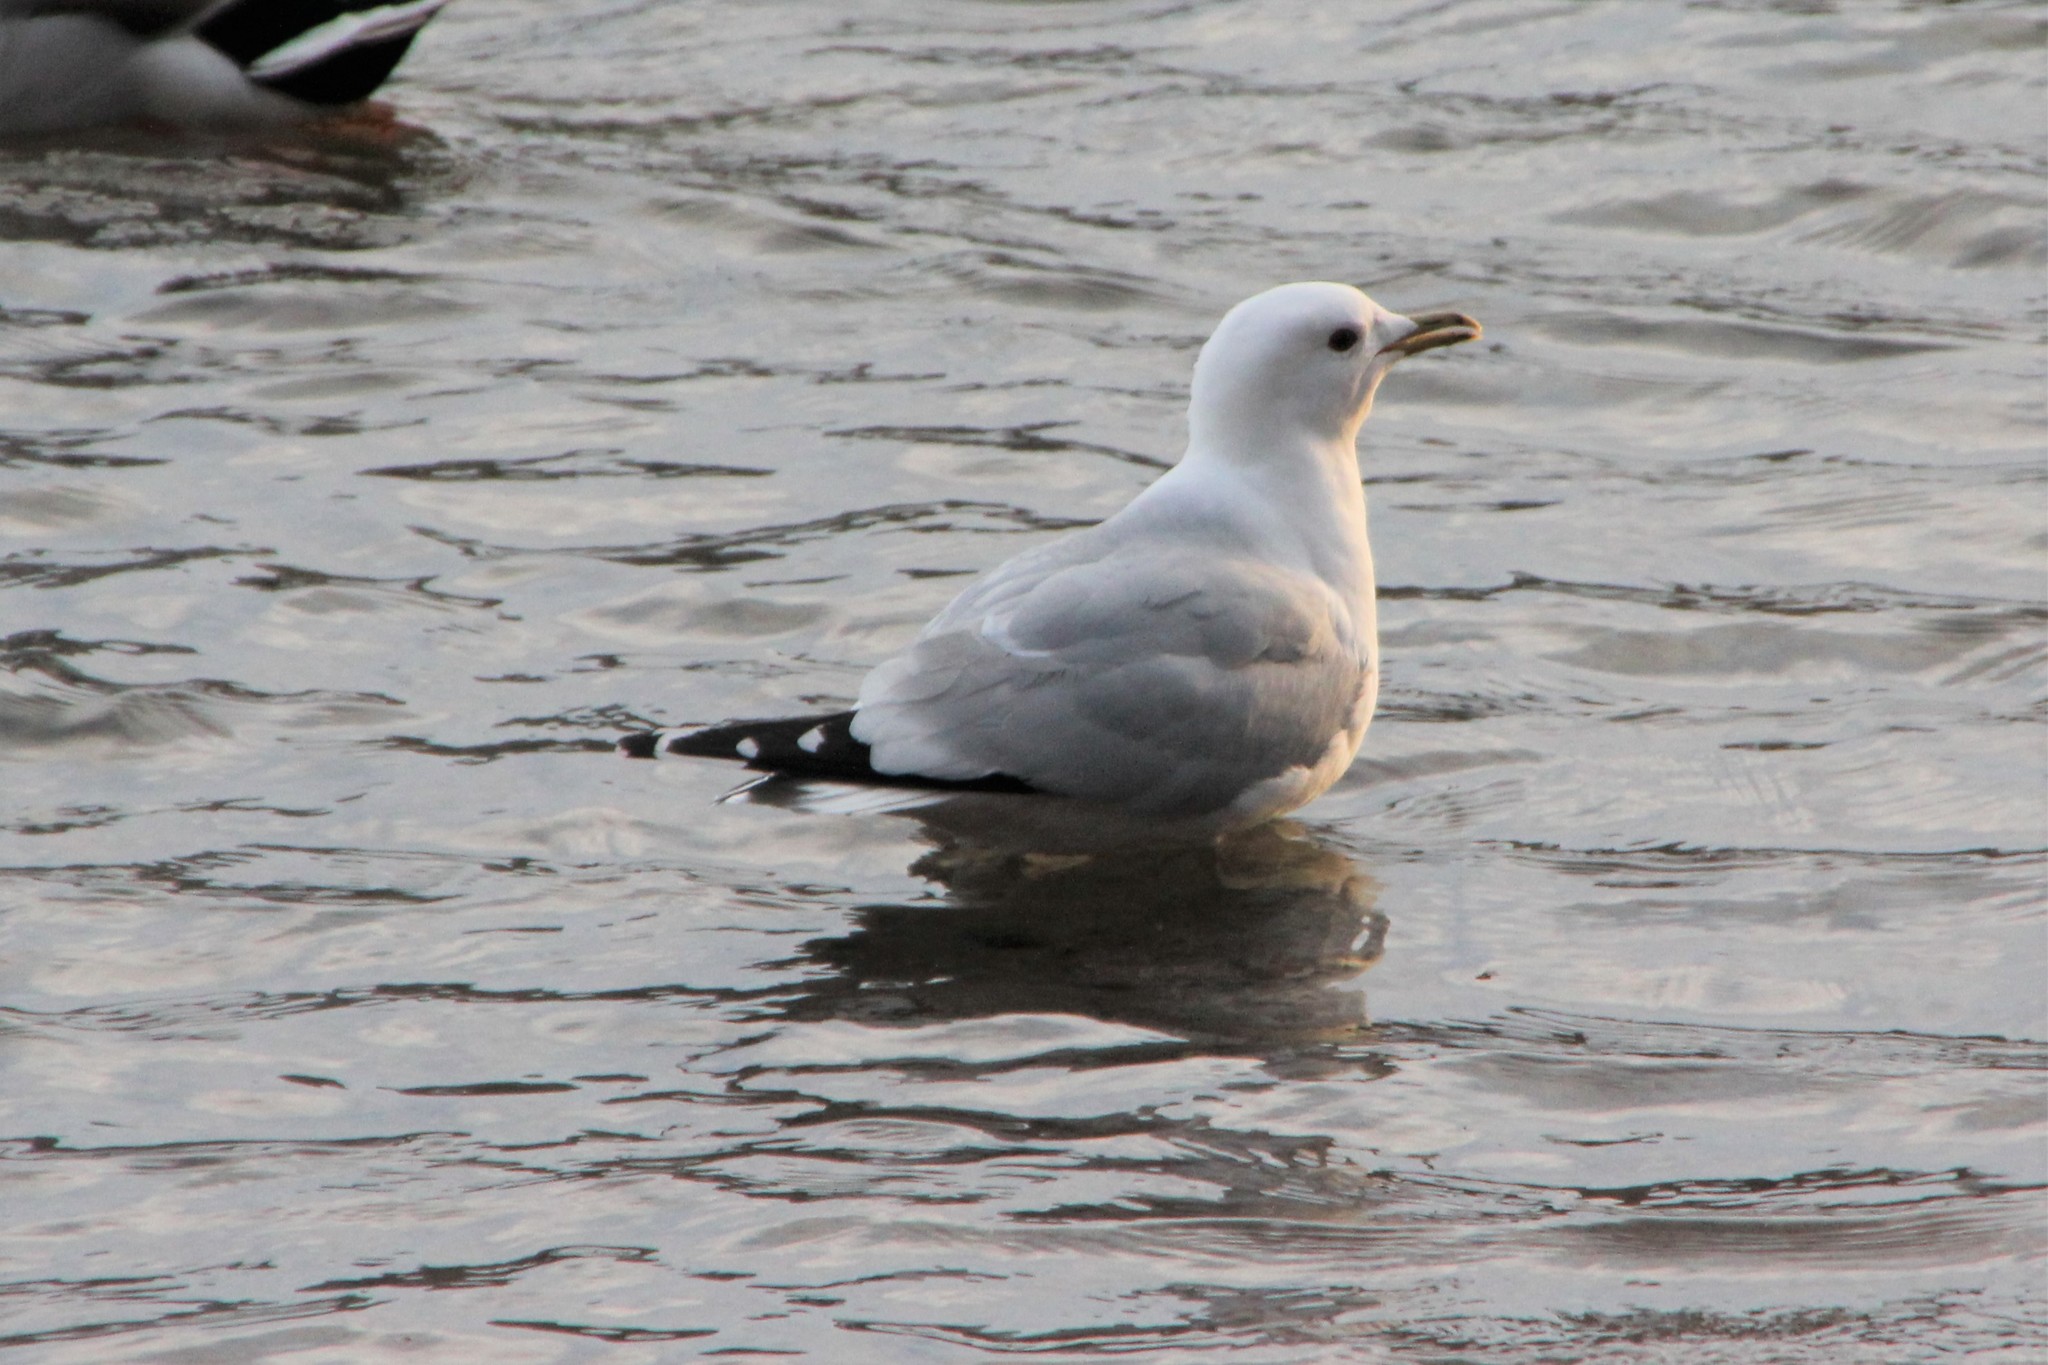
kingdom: Animalia
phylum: Chordata
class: Aves
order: Charadriiformes
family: Laridae
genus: Larus
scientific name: Larus canus
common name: Mew gull
